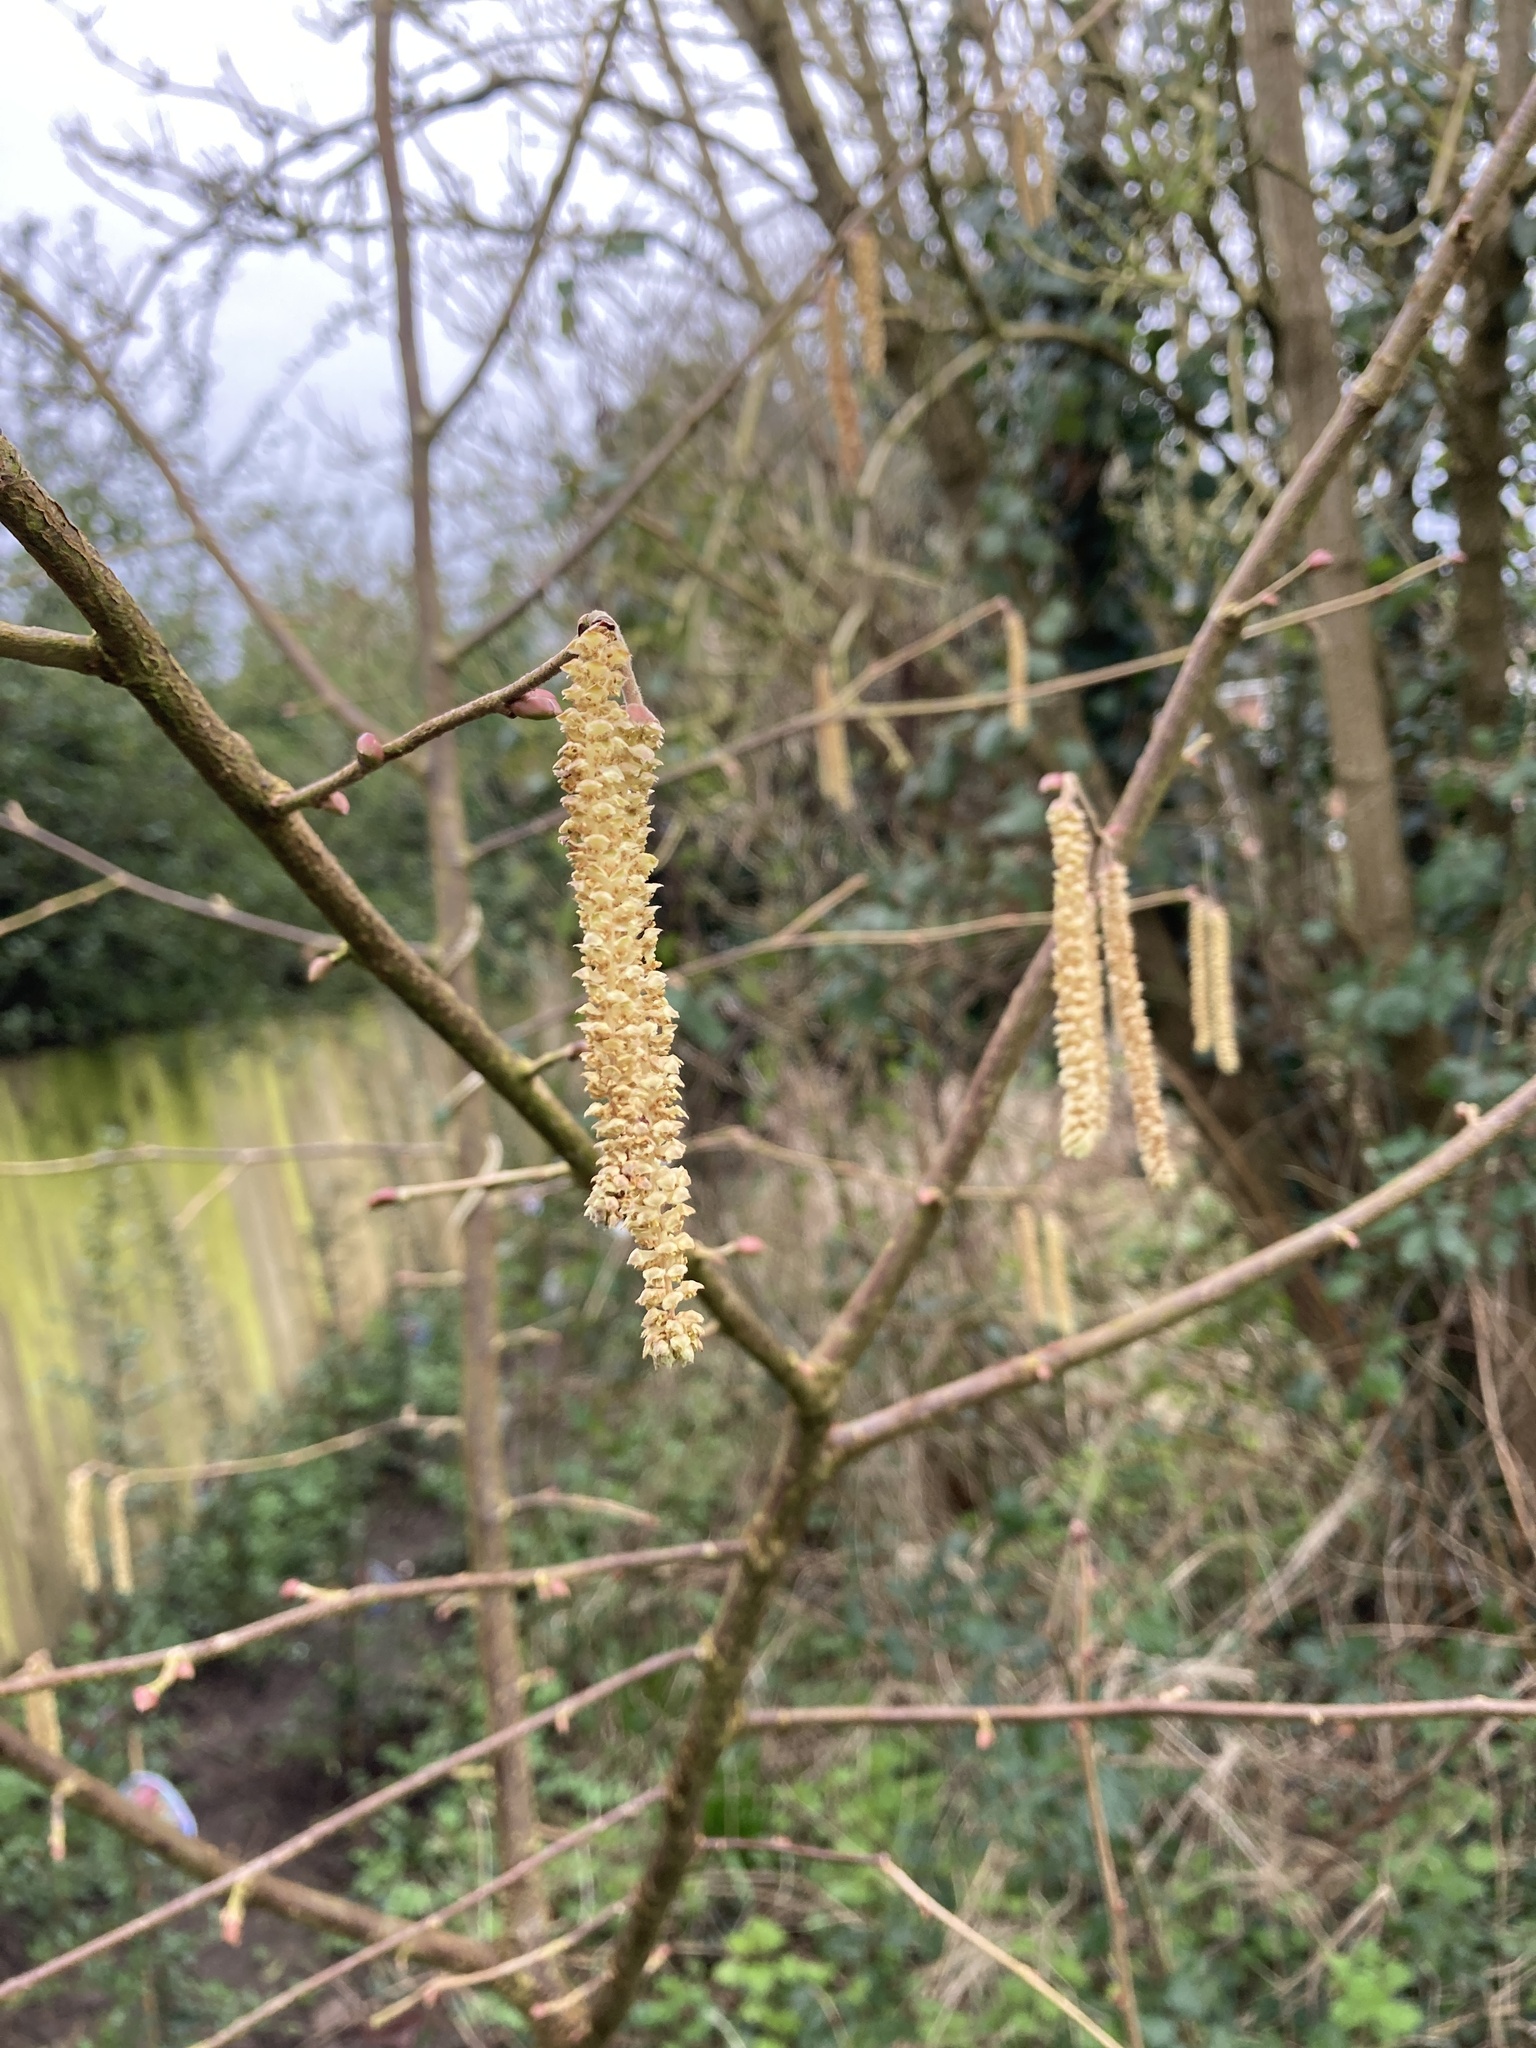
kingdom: Plantae
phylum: Tracheophyta
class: Magnoliopsida
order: Fagales
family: Betulaceae
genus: Corylus
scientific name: Corylus avellana
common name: European hazel
